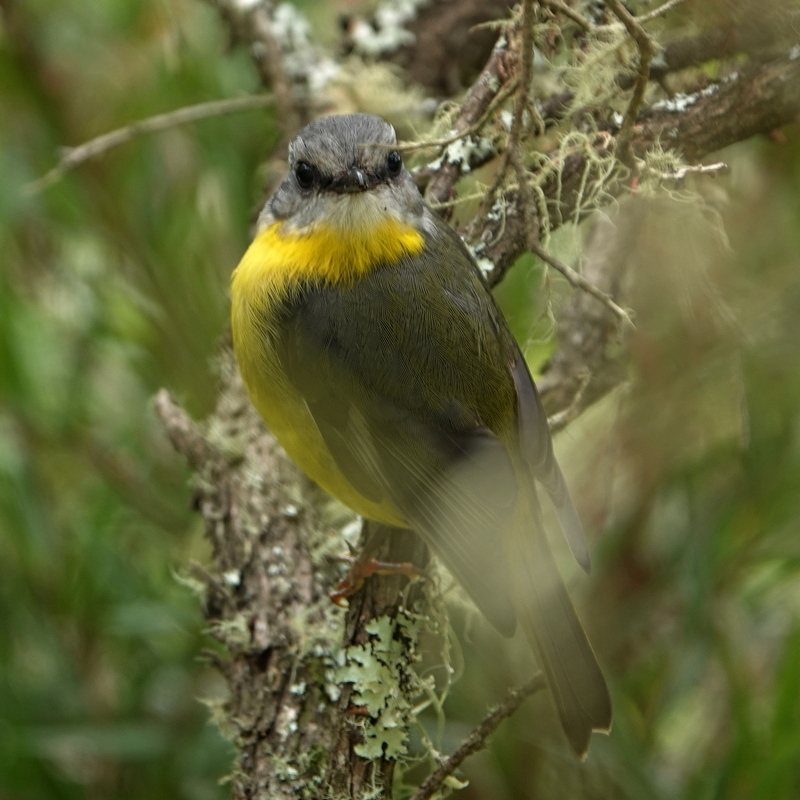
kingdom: Animalia
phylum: Chordata
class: Aves
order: Passeriformes
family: Petroicidae
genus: Eopsaltria
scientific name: Eopsaltria australis
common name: Eastern yellow robin
